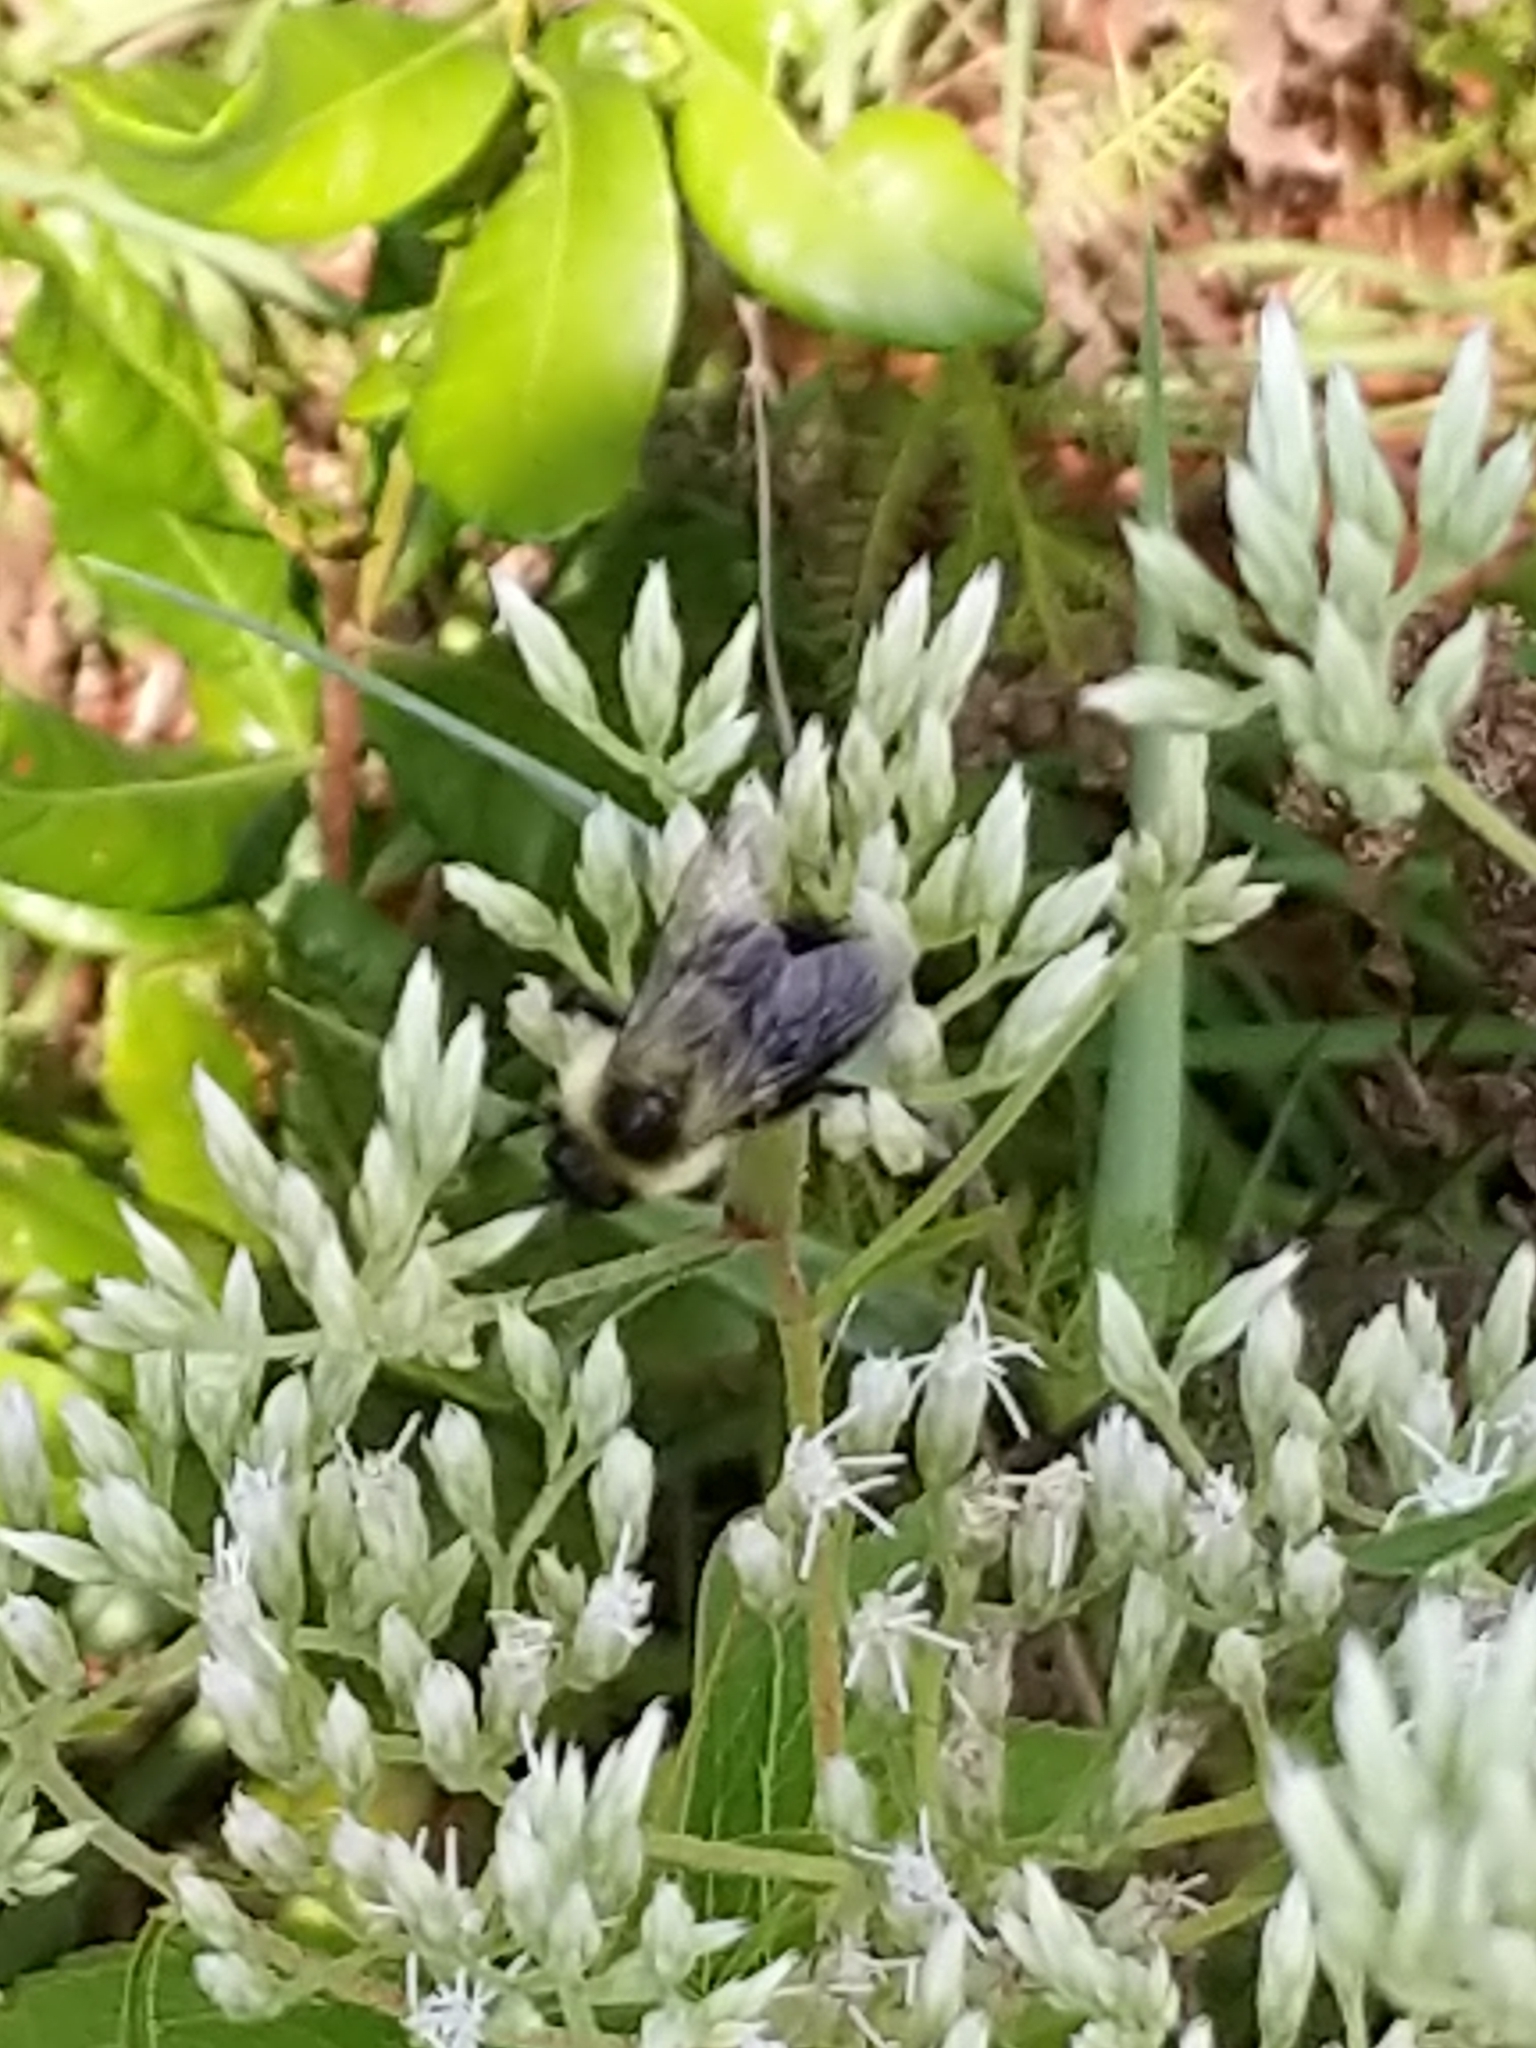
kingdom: Animalia
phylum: Arthropoda
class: Insecta
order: Hymenoptera
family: Apidae
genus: Bombus
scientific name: Bombus impatiens
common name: Common eastern bumble bee
